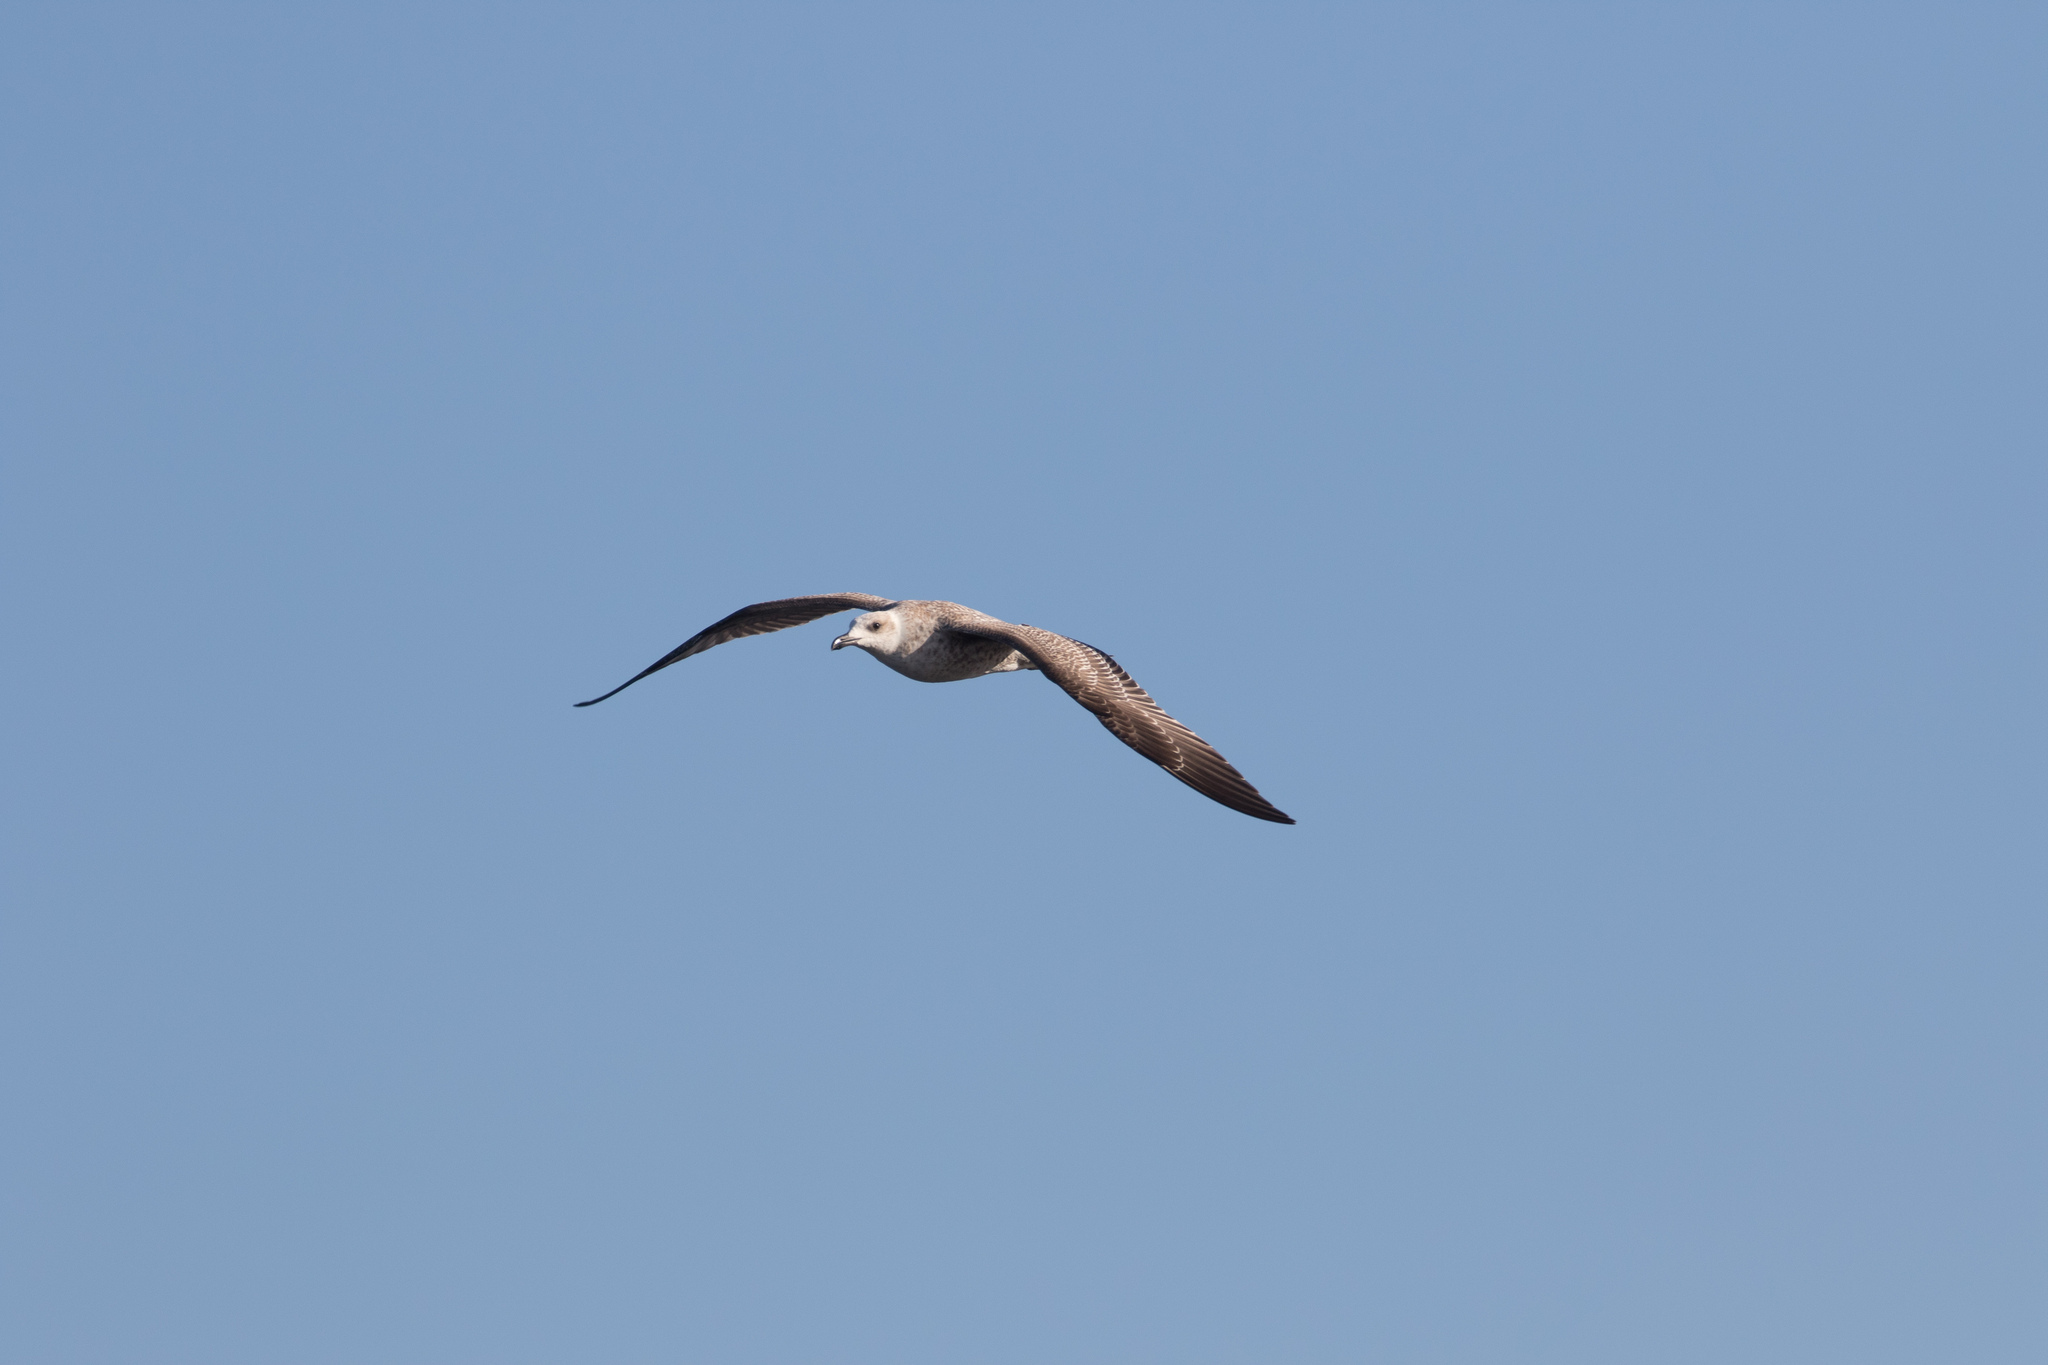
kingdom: Animalia
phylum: Chordata
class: Aves
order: Charadriiformes
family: Laridae
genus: Larus
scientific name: Larus michahellis
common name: Yellow-legged gull
